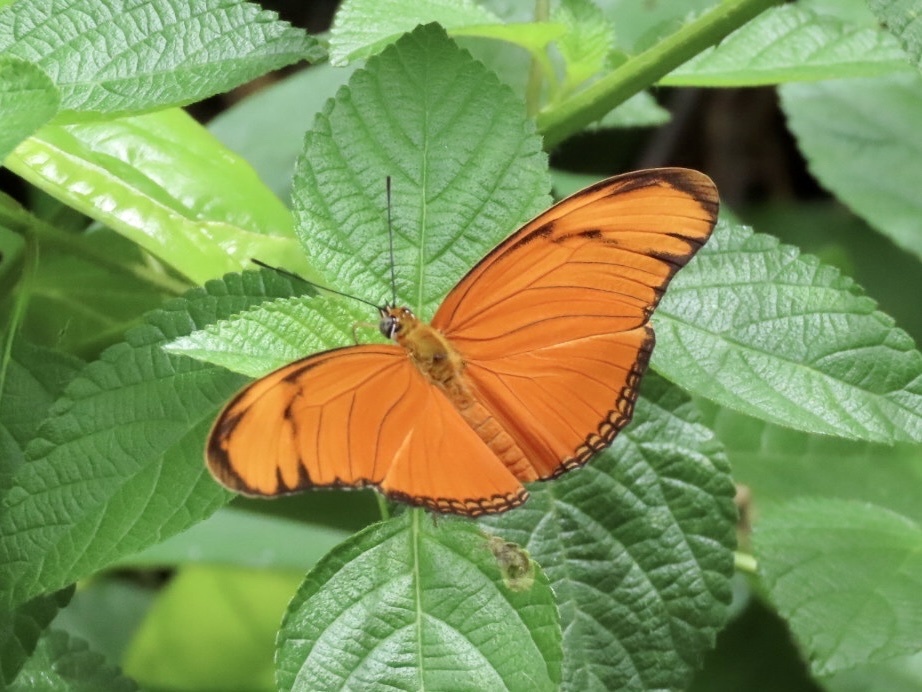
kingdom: Animalia
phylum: Arthropoda
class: Insecta
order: Lepidoptera
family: Nymphalidae
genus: Dryas
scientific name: Dryas iulia
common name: Flambeau
